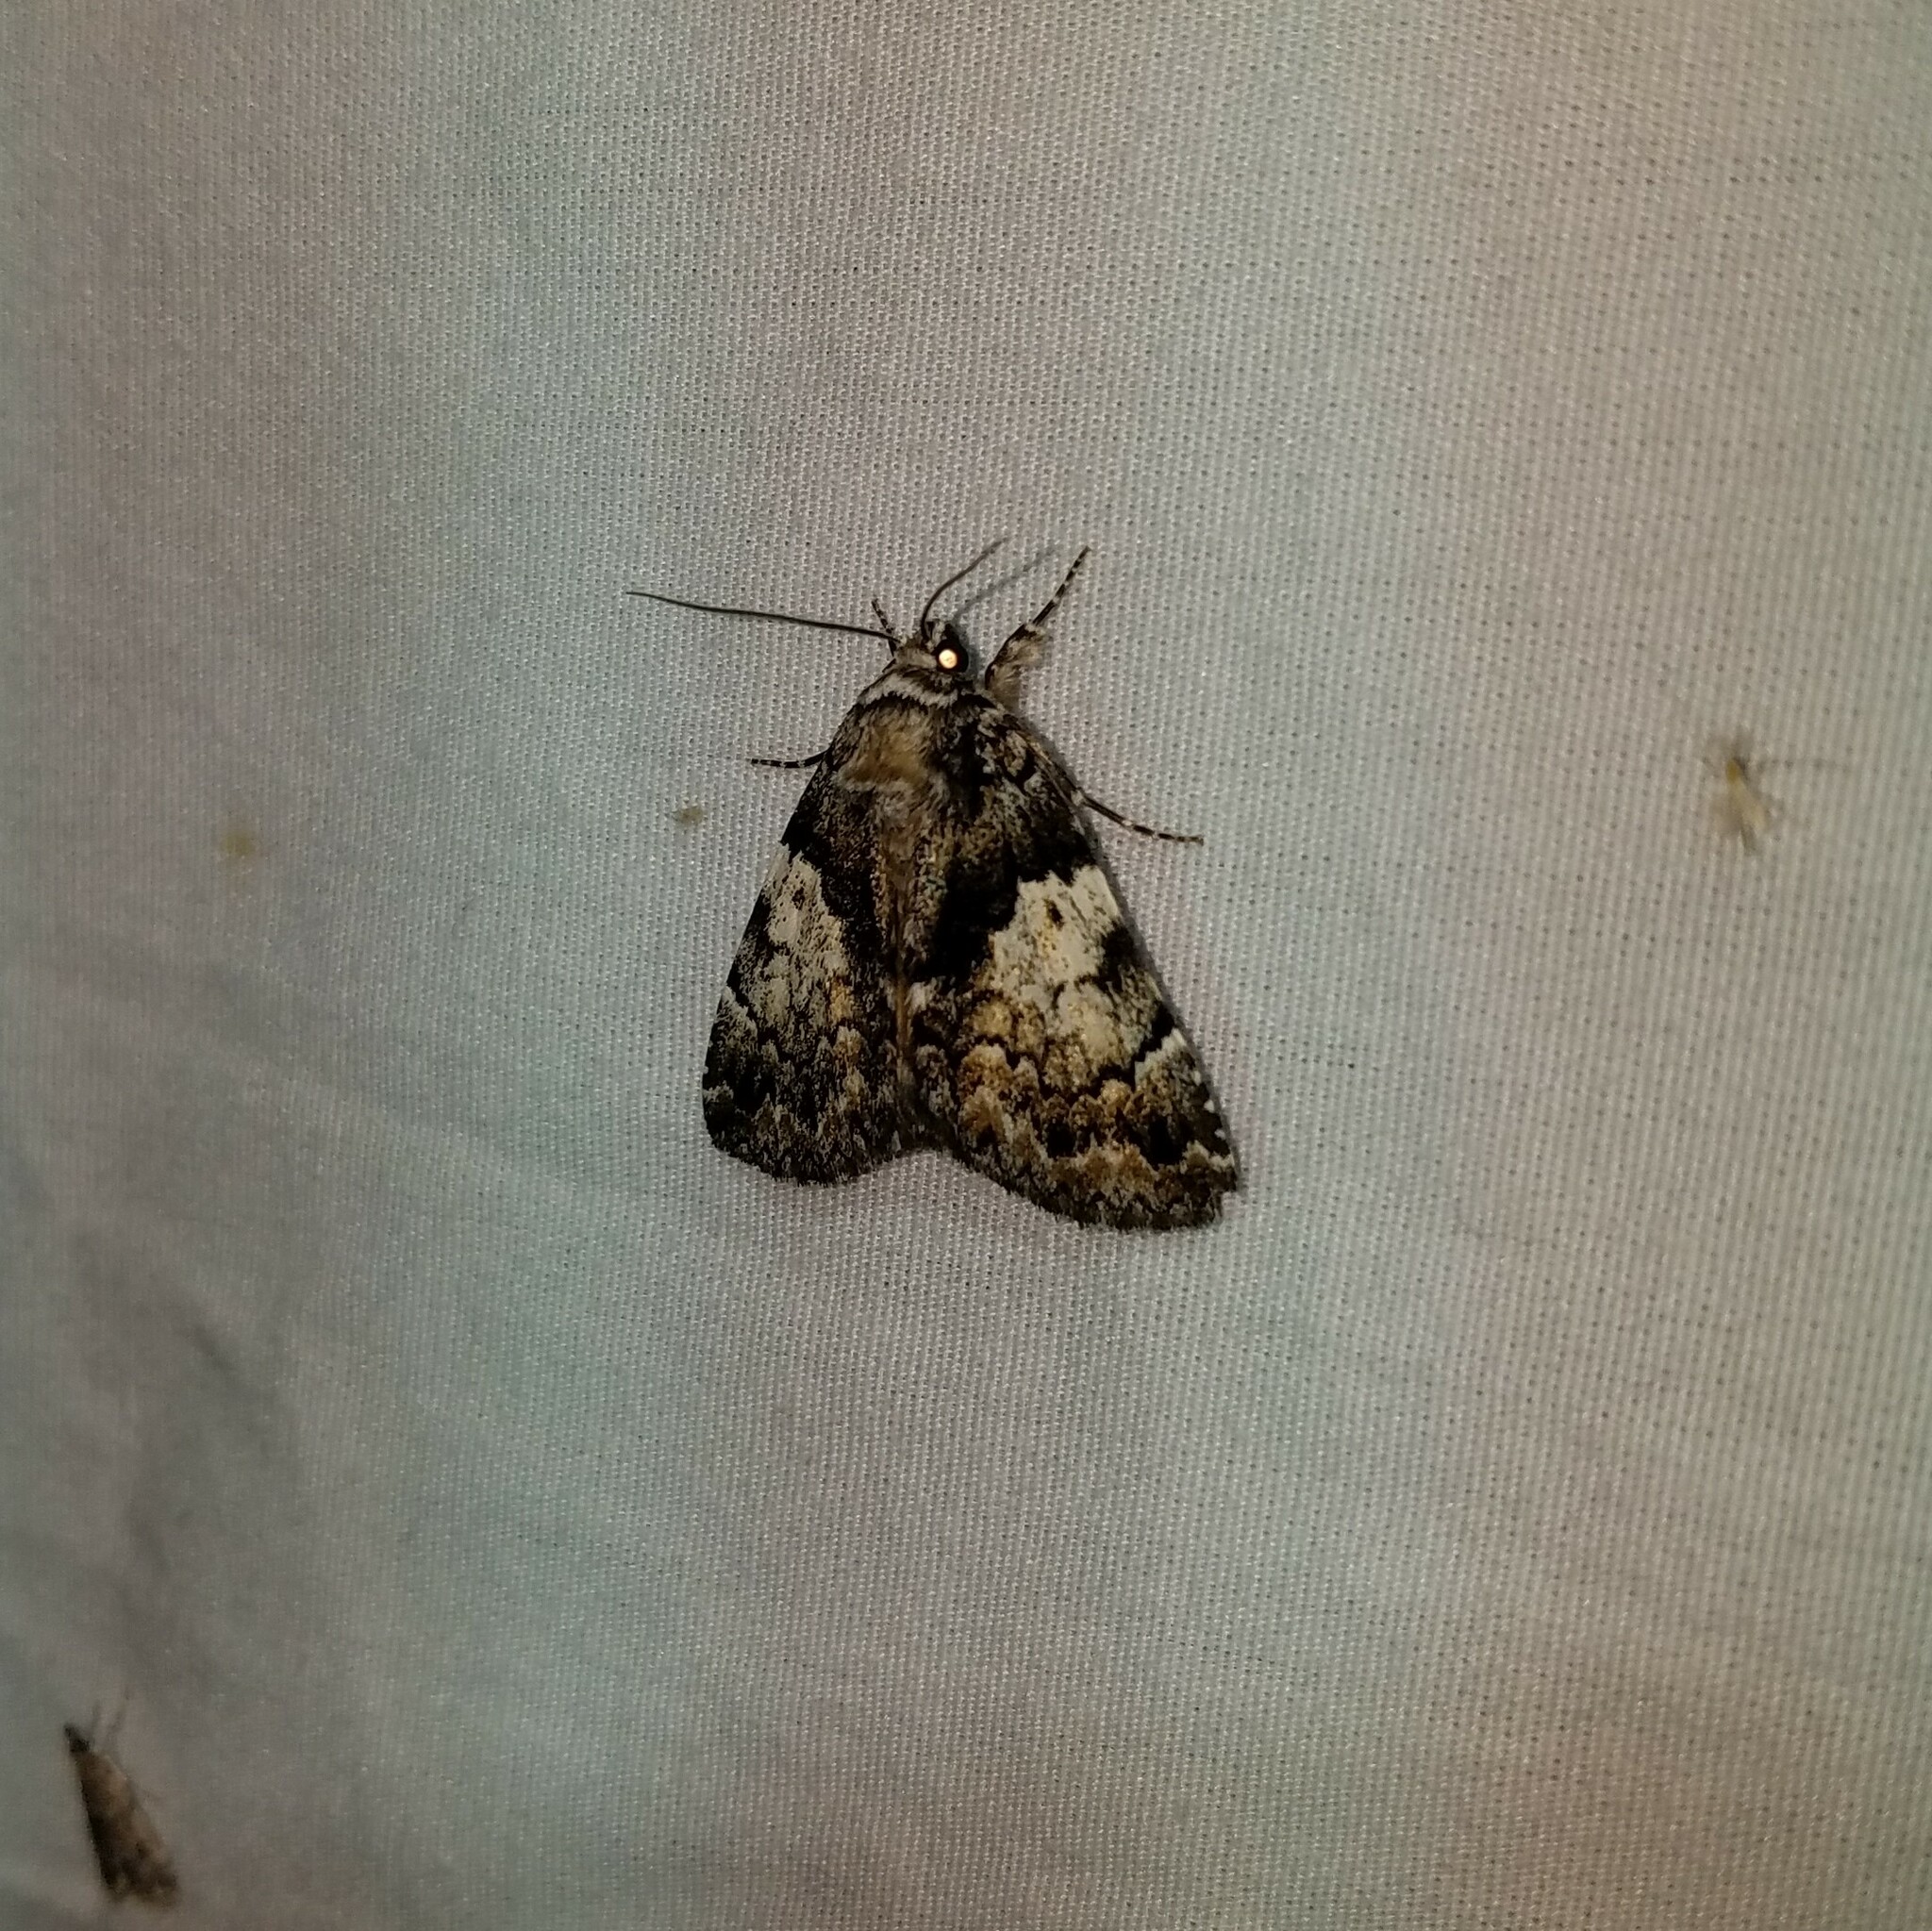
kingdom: Animalia
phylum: Arthropoda
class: Insecta
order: Lepidoptera
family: Erebidae
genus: Allotria
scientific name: Allotria elonympha
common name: False underwing
